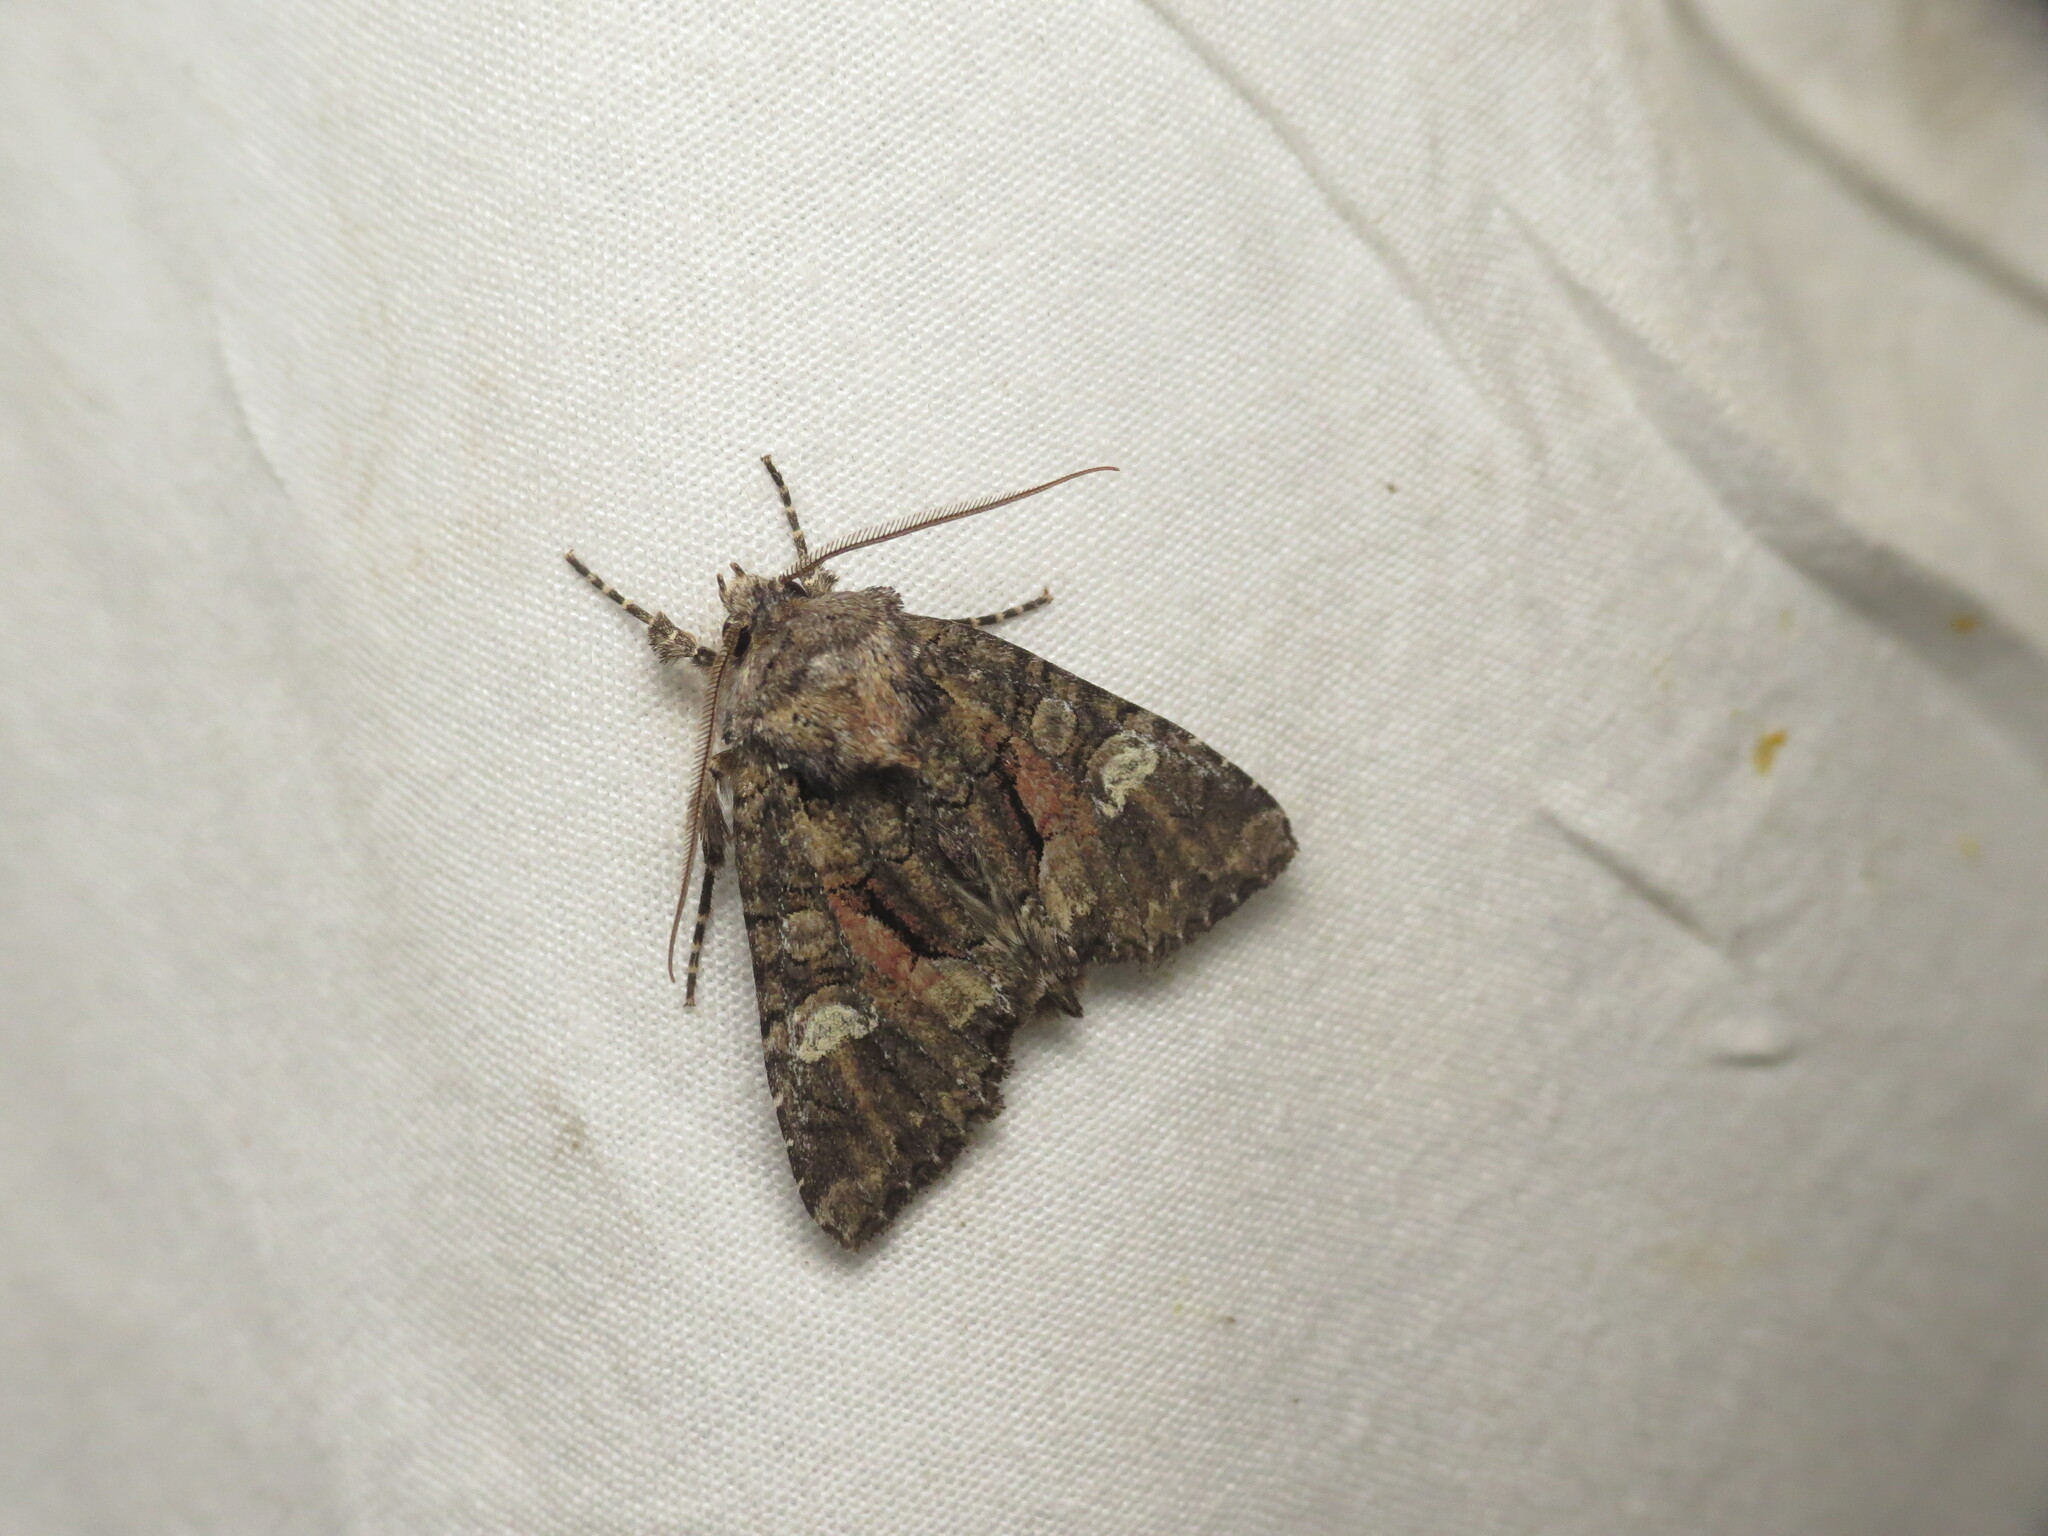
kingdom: Animalia
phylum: Arthropoda
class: Insecta
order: Lepidoptera
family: Noctuidae
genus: Fishia
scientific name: Fishia illocata
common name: Wandering brocade moth
